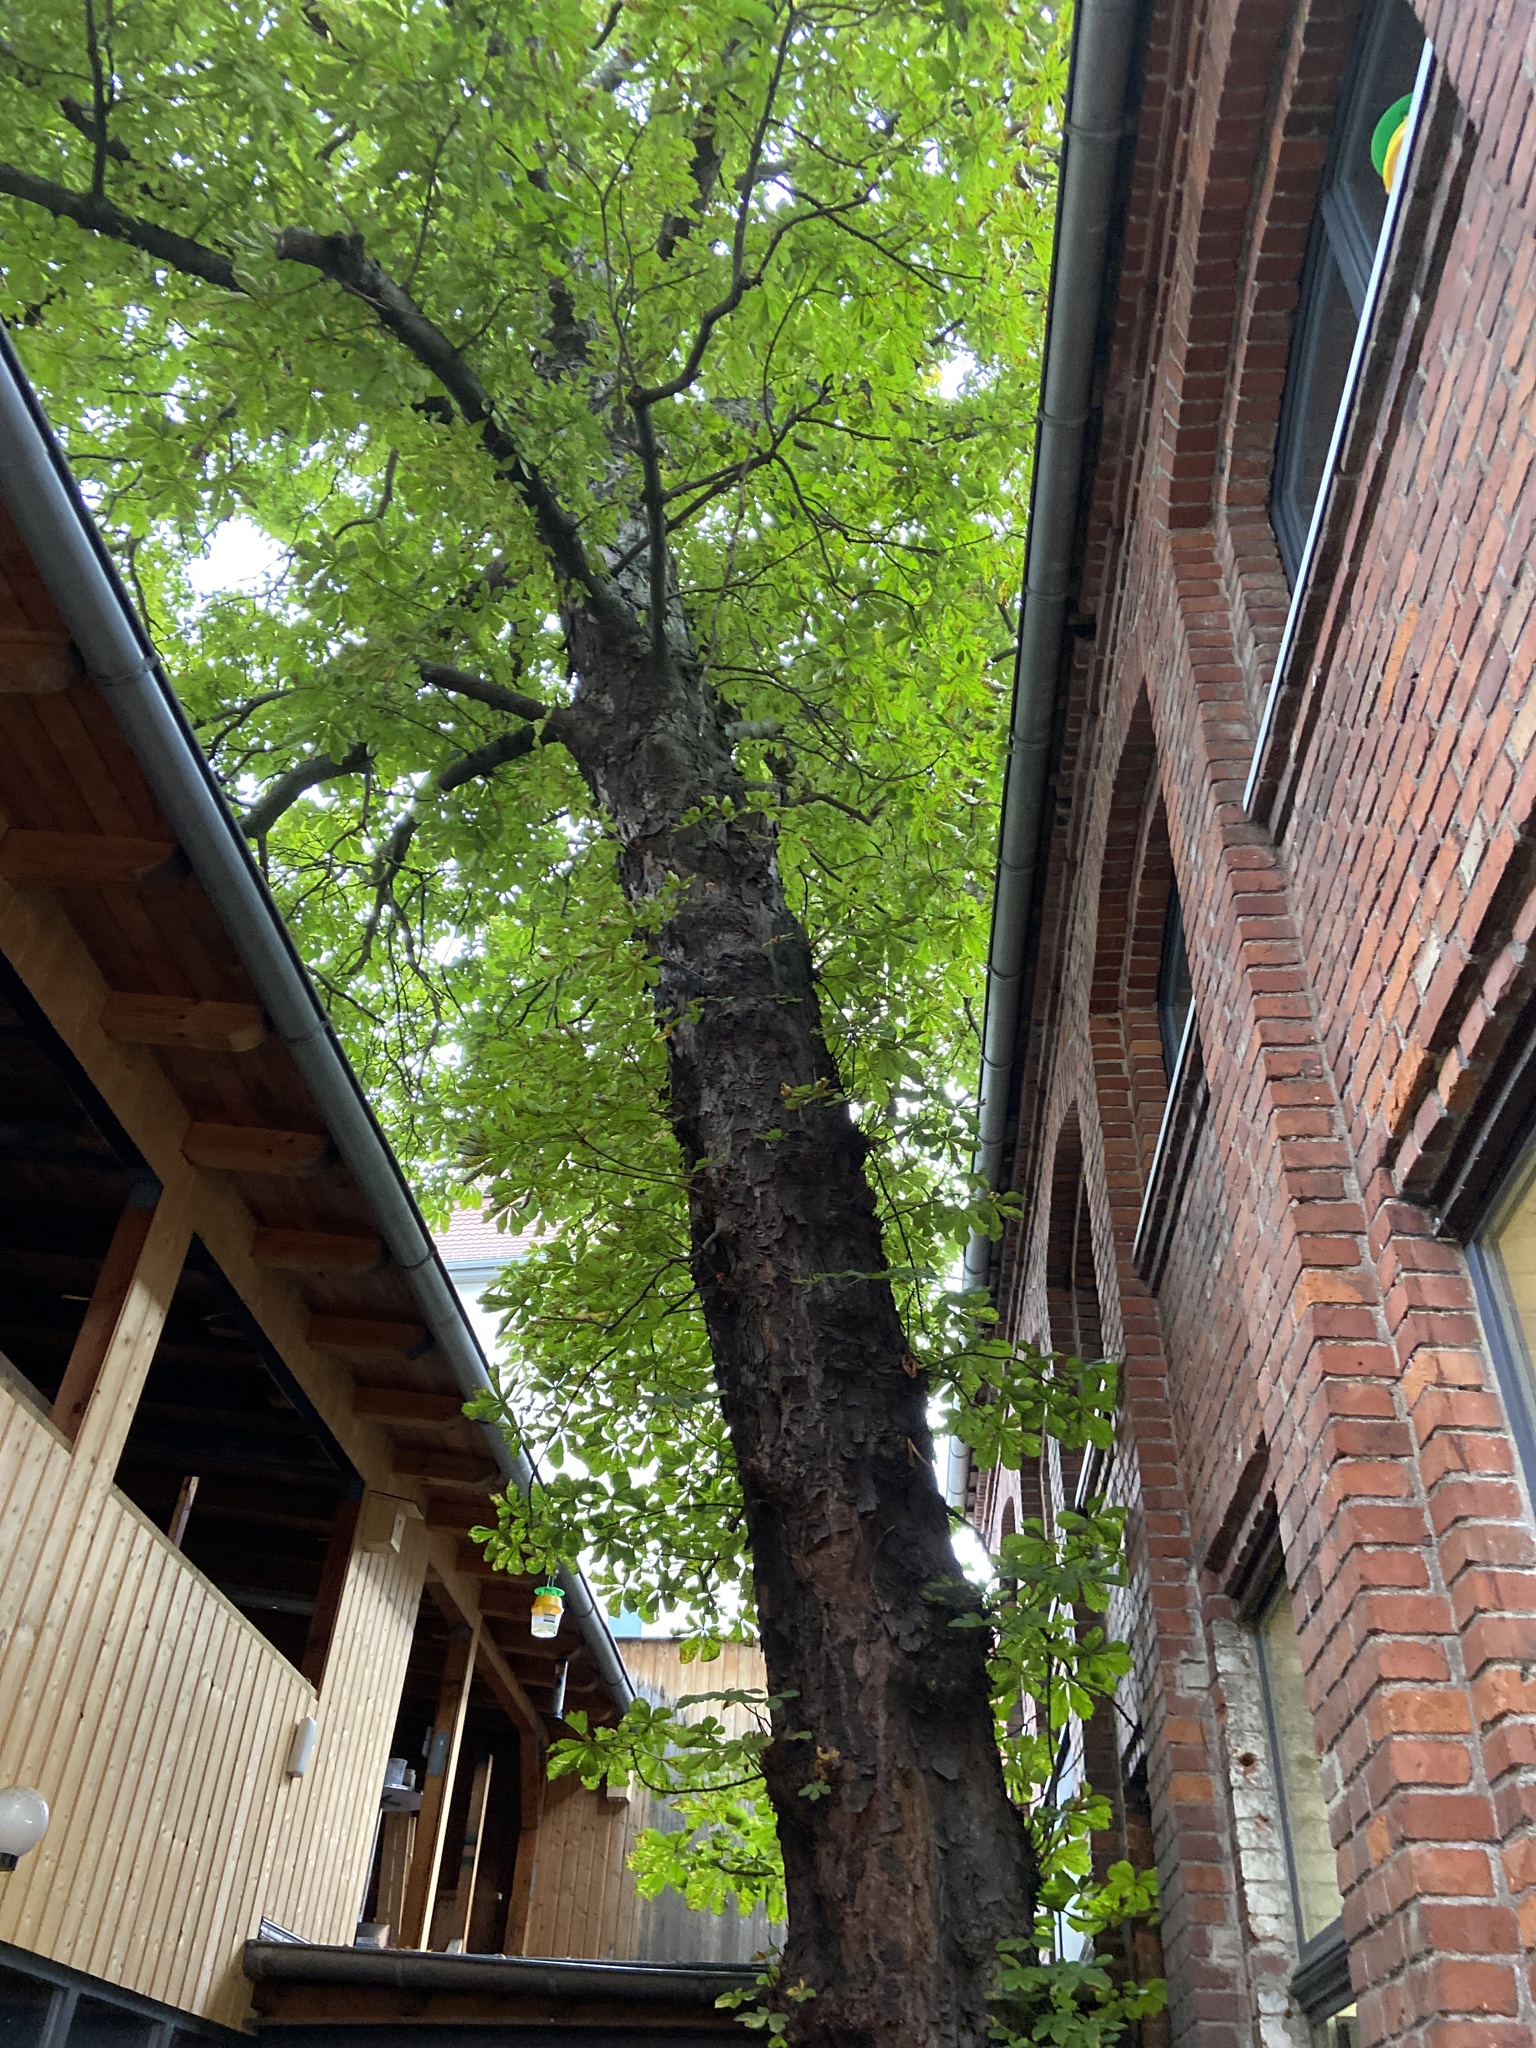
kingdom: Animalia
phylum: Arthropoda
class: Insecta
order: Lepidoptera
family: Gracillariidae
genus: Cameraria
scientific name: Cameraria ohridella
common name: Horse-chestnut leaf-miner
